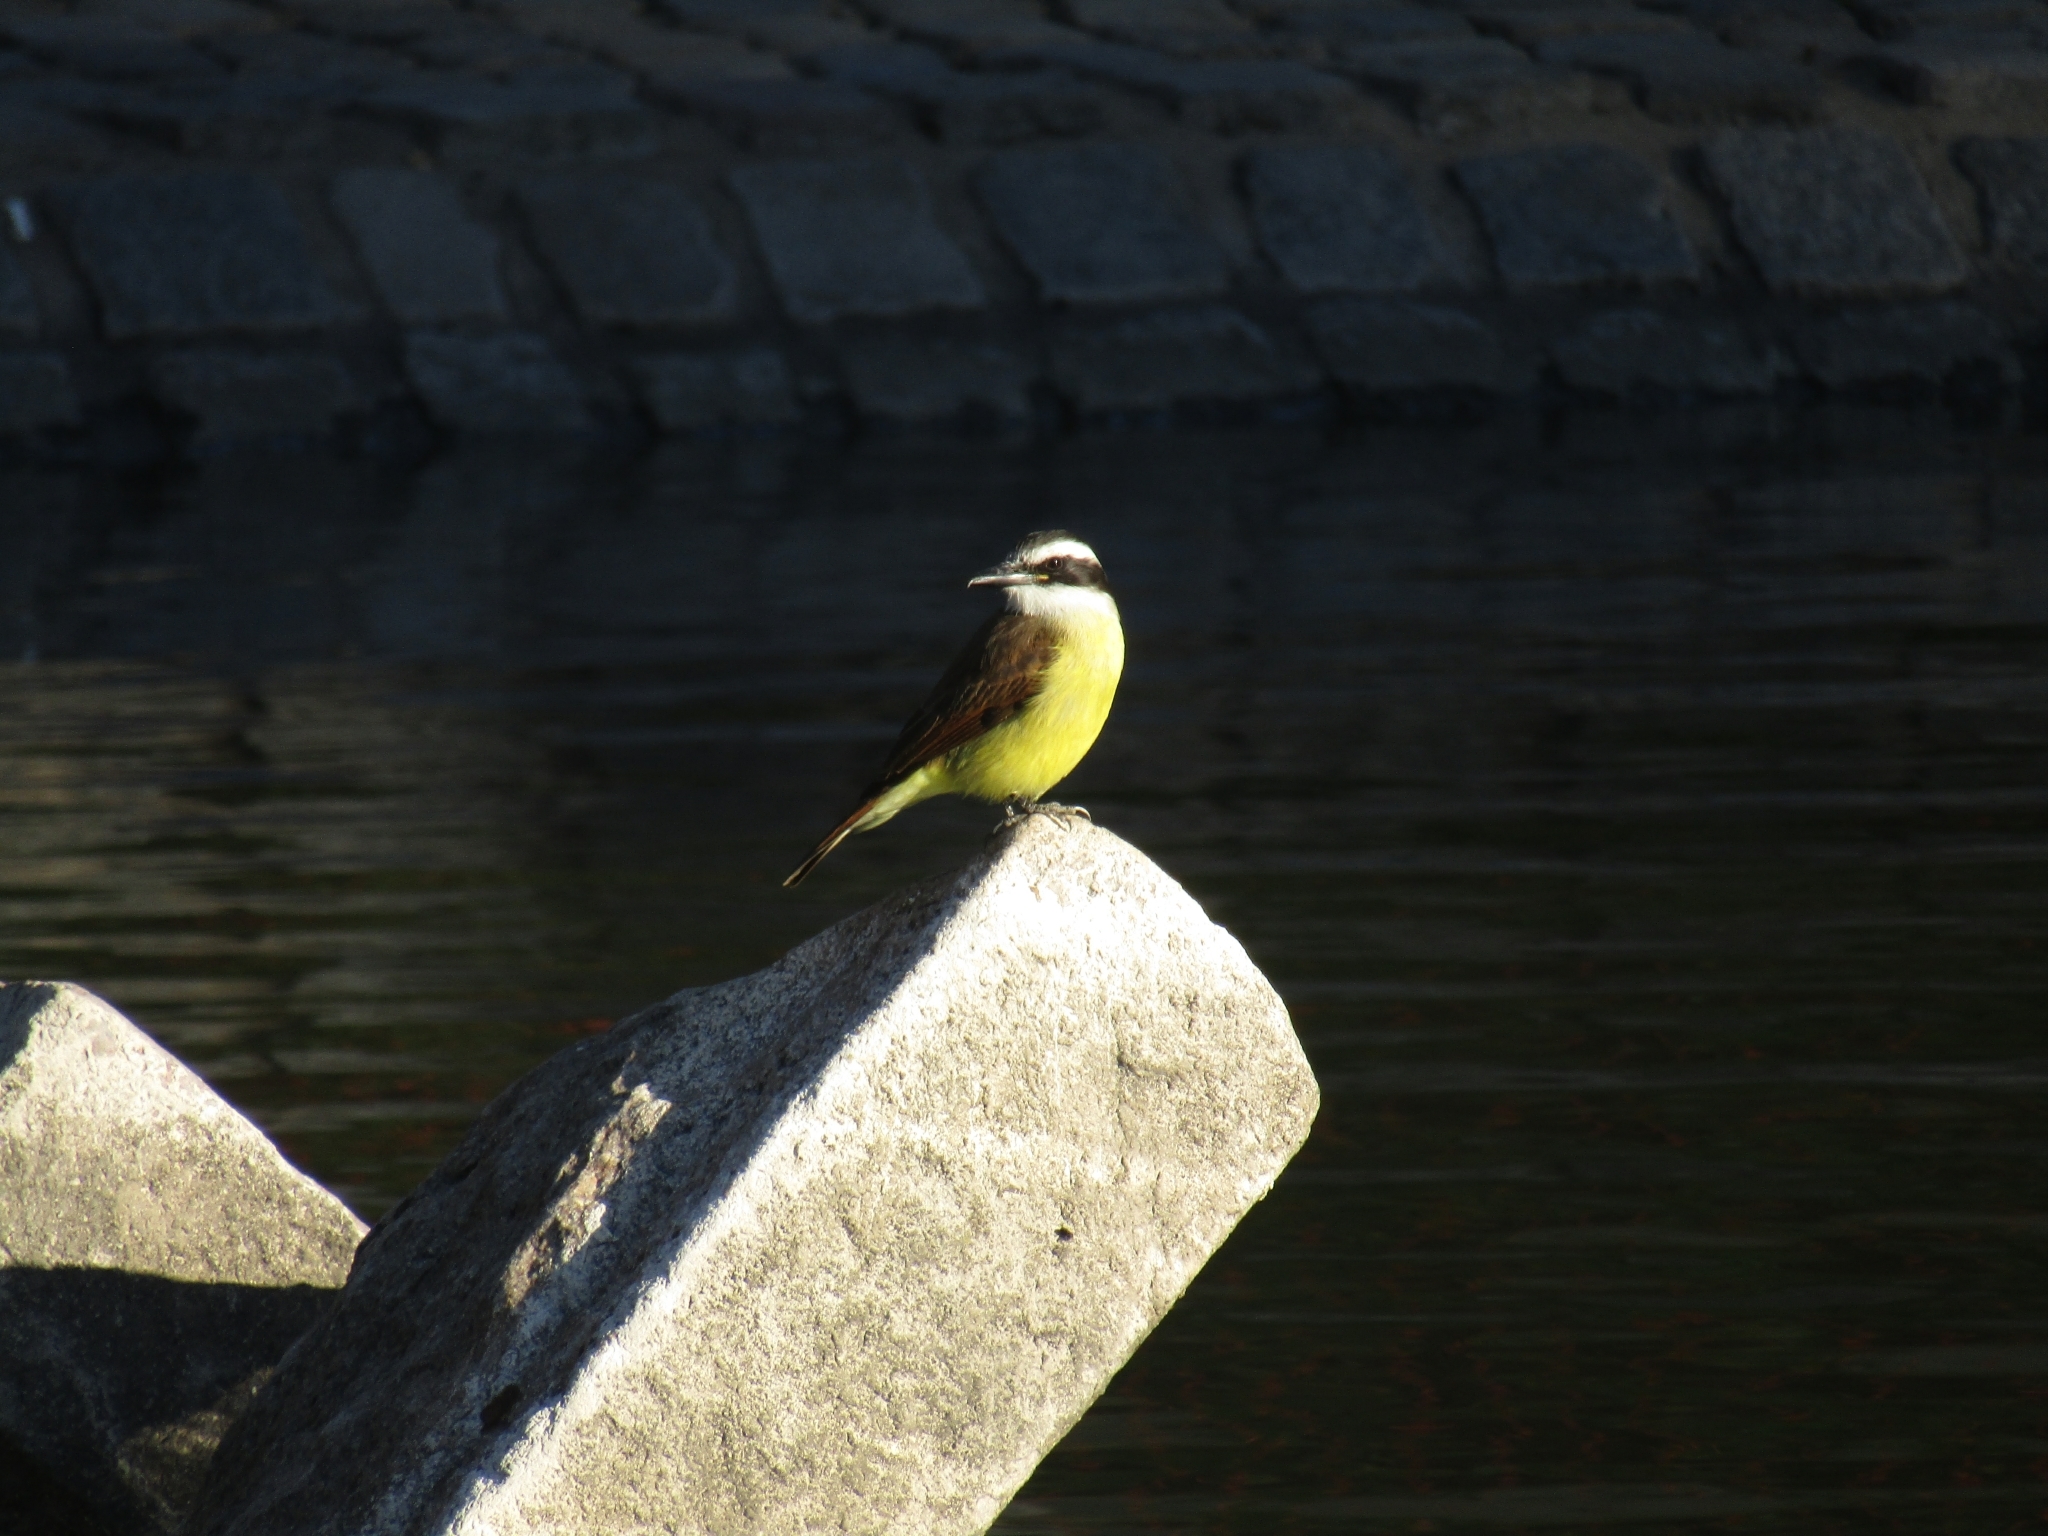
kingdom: Animalia
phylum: Chordata
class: Aves
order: Passeriformes
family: Tyrannidae
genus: Pitangus
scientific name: Pitangus sulphuratus
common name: Great kiskadee
